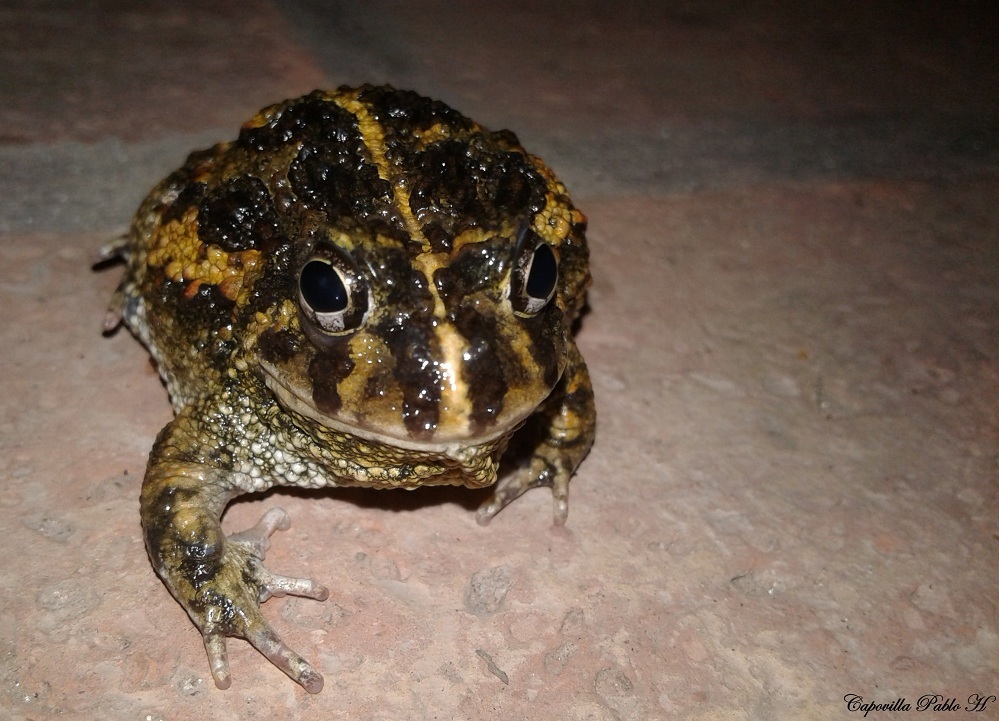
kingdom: Animalia
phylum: Chordata
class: Amphibia
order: Anura
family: Odontophrynidae
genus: Odontophrynus
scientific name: Odontophrynus
